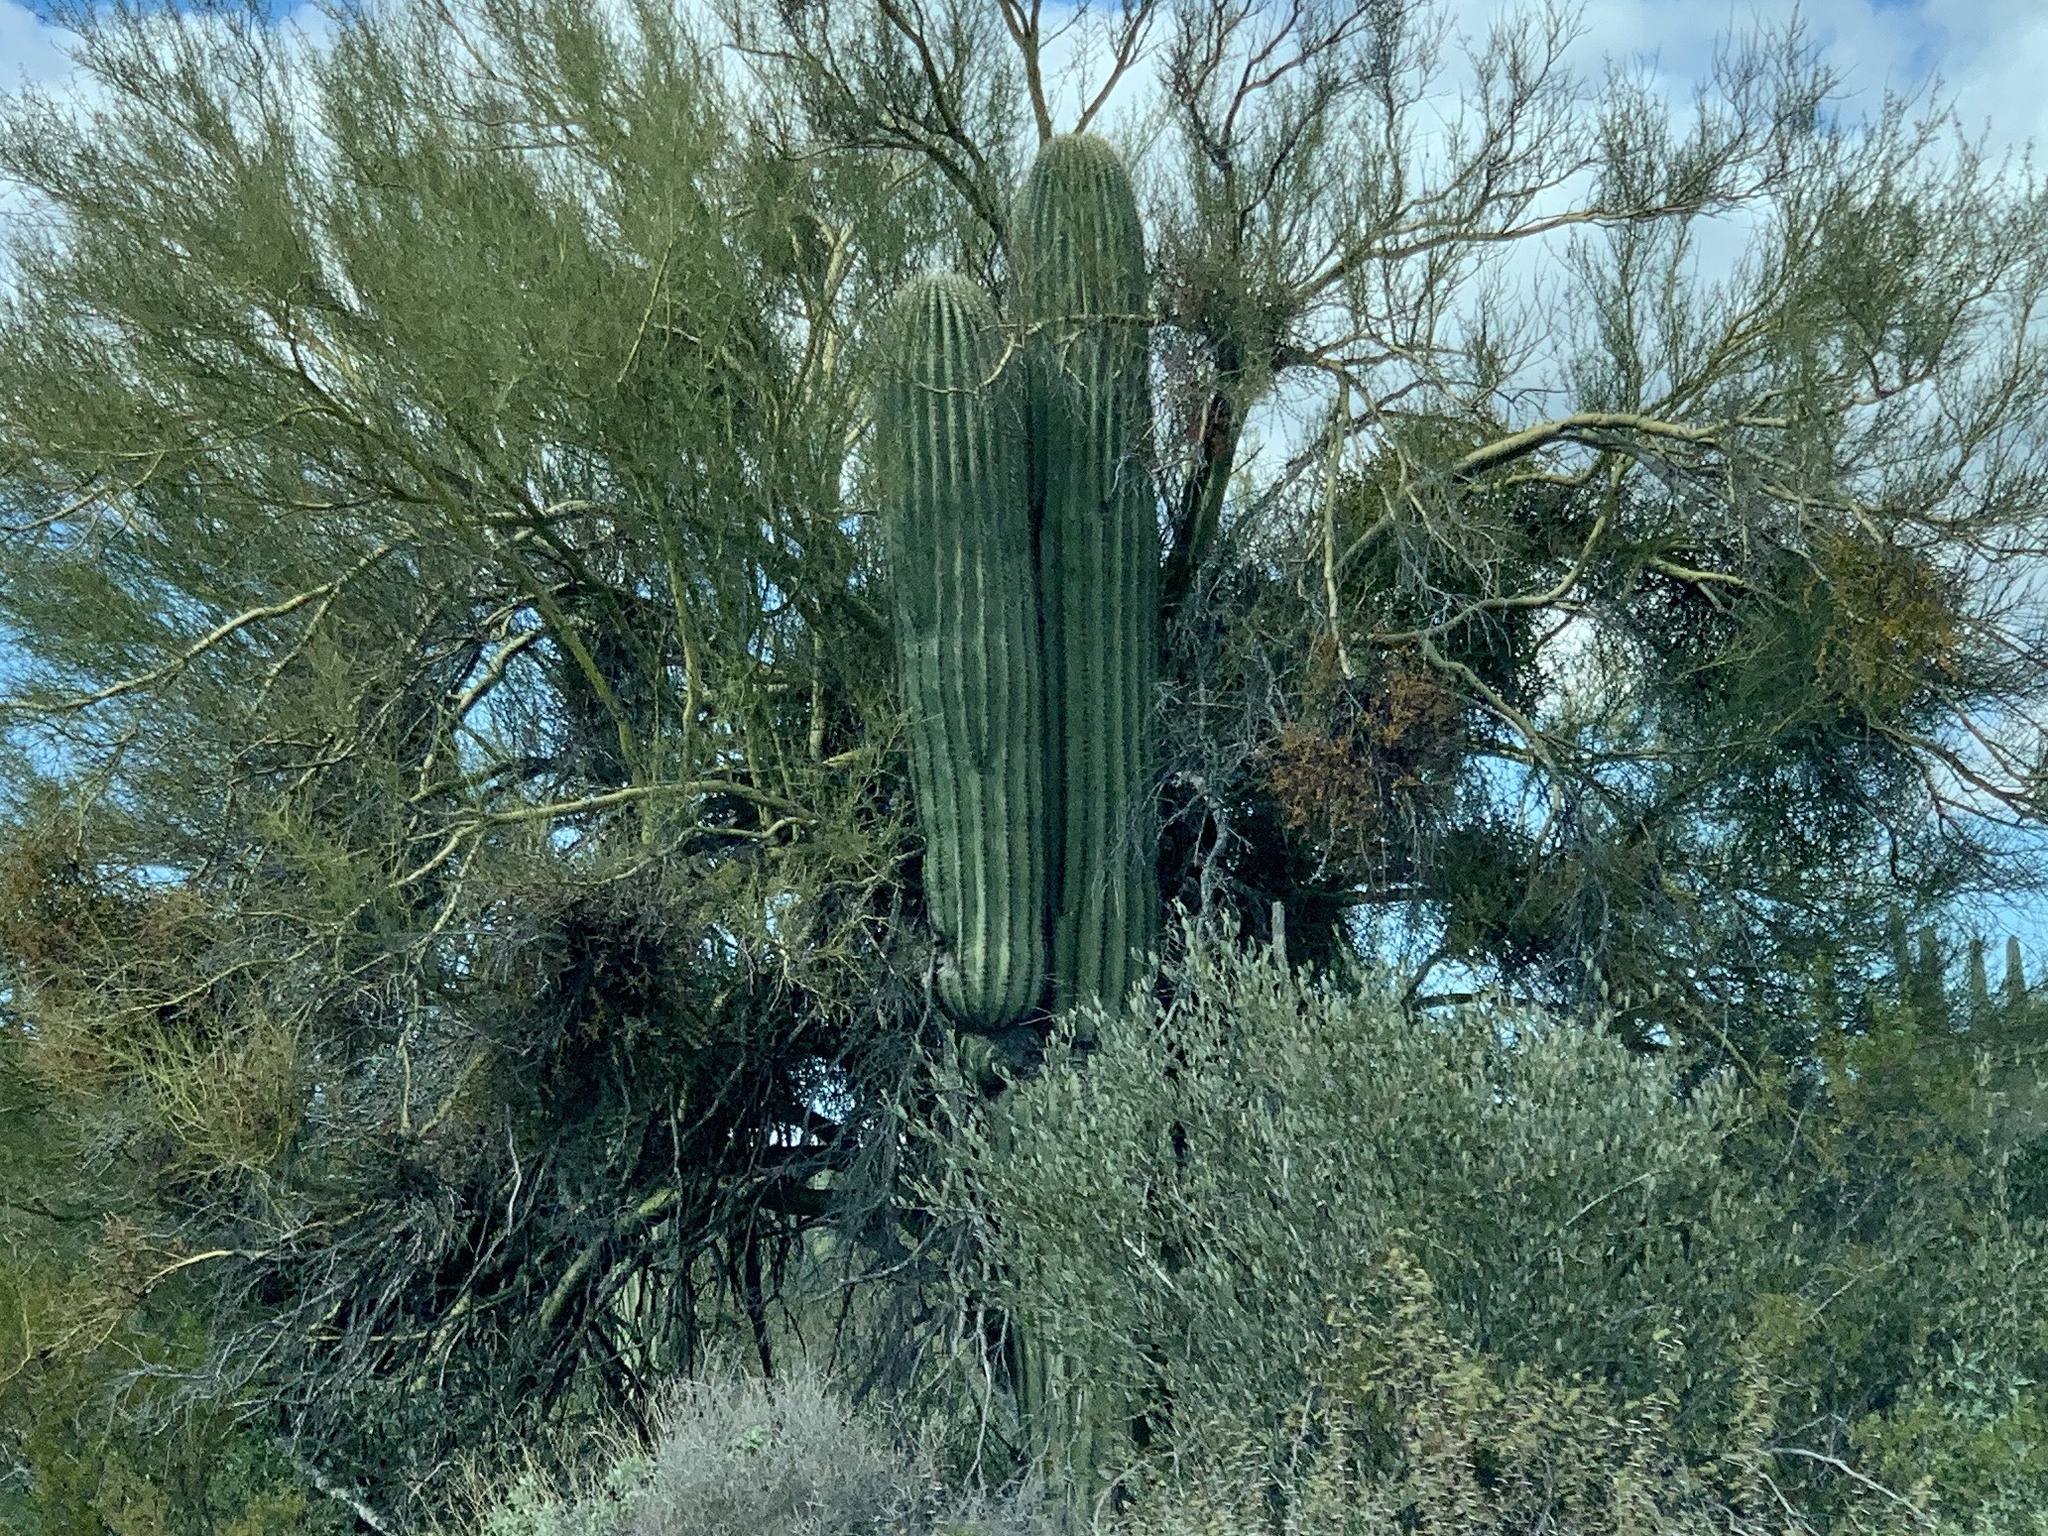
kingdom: Plantae
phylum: Tracheophyta
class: Magnoliopsida
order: Caryophyllales
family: Cactaceae
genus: Carnegiea
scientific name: Carnegiea gigantea
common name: Saguaro
